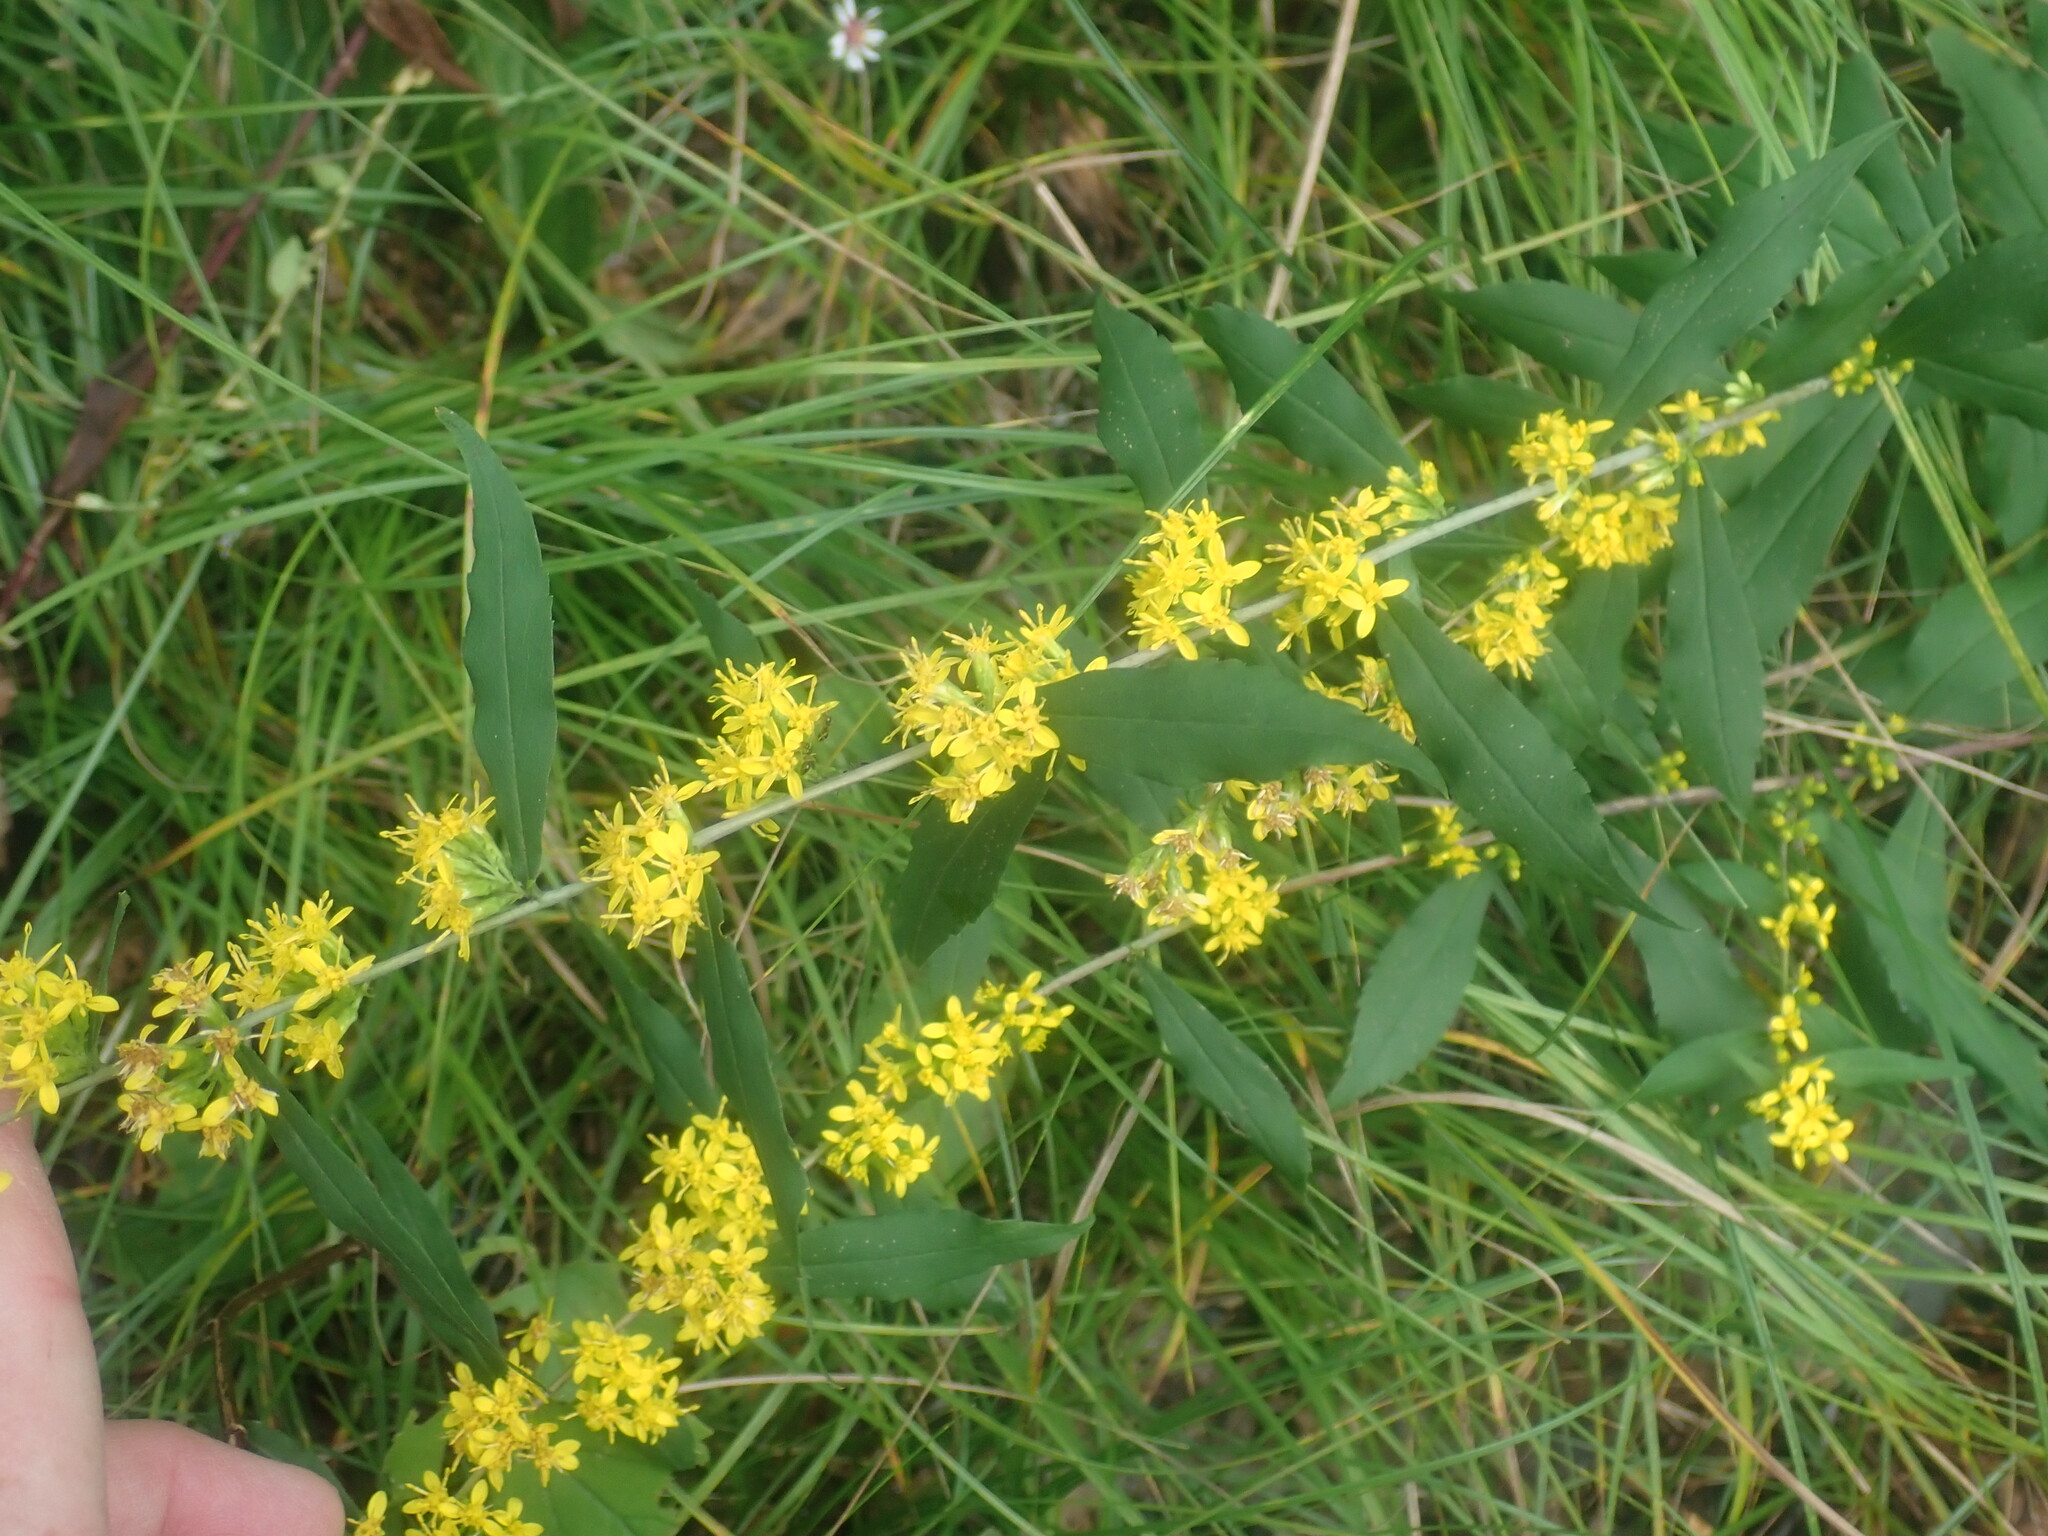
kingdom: Plantae
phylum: Tracheophyta
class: Magnoliopsida
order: Asterales
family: Asteraceae
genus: Solidago
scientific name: Solidago caesia
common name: Woodland goldenrod
